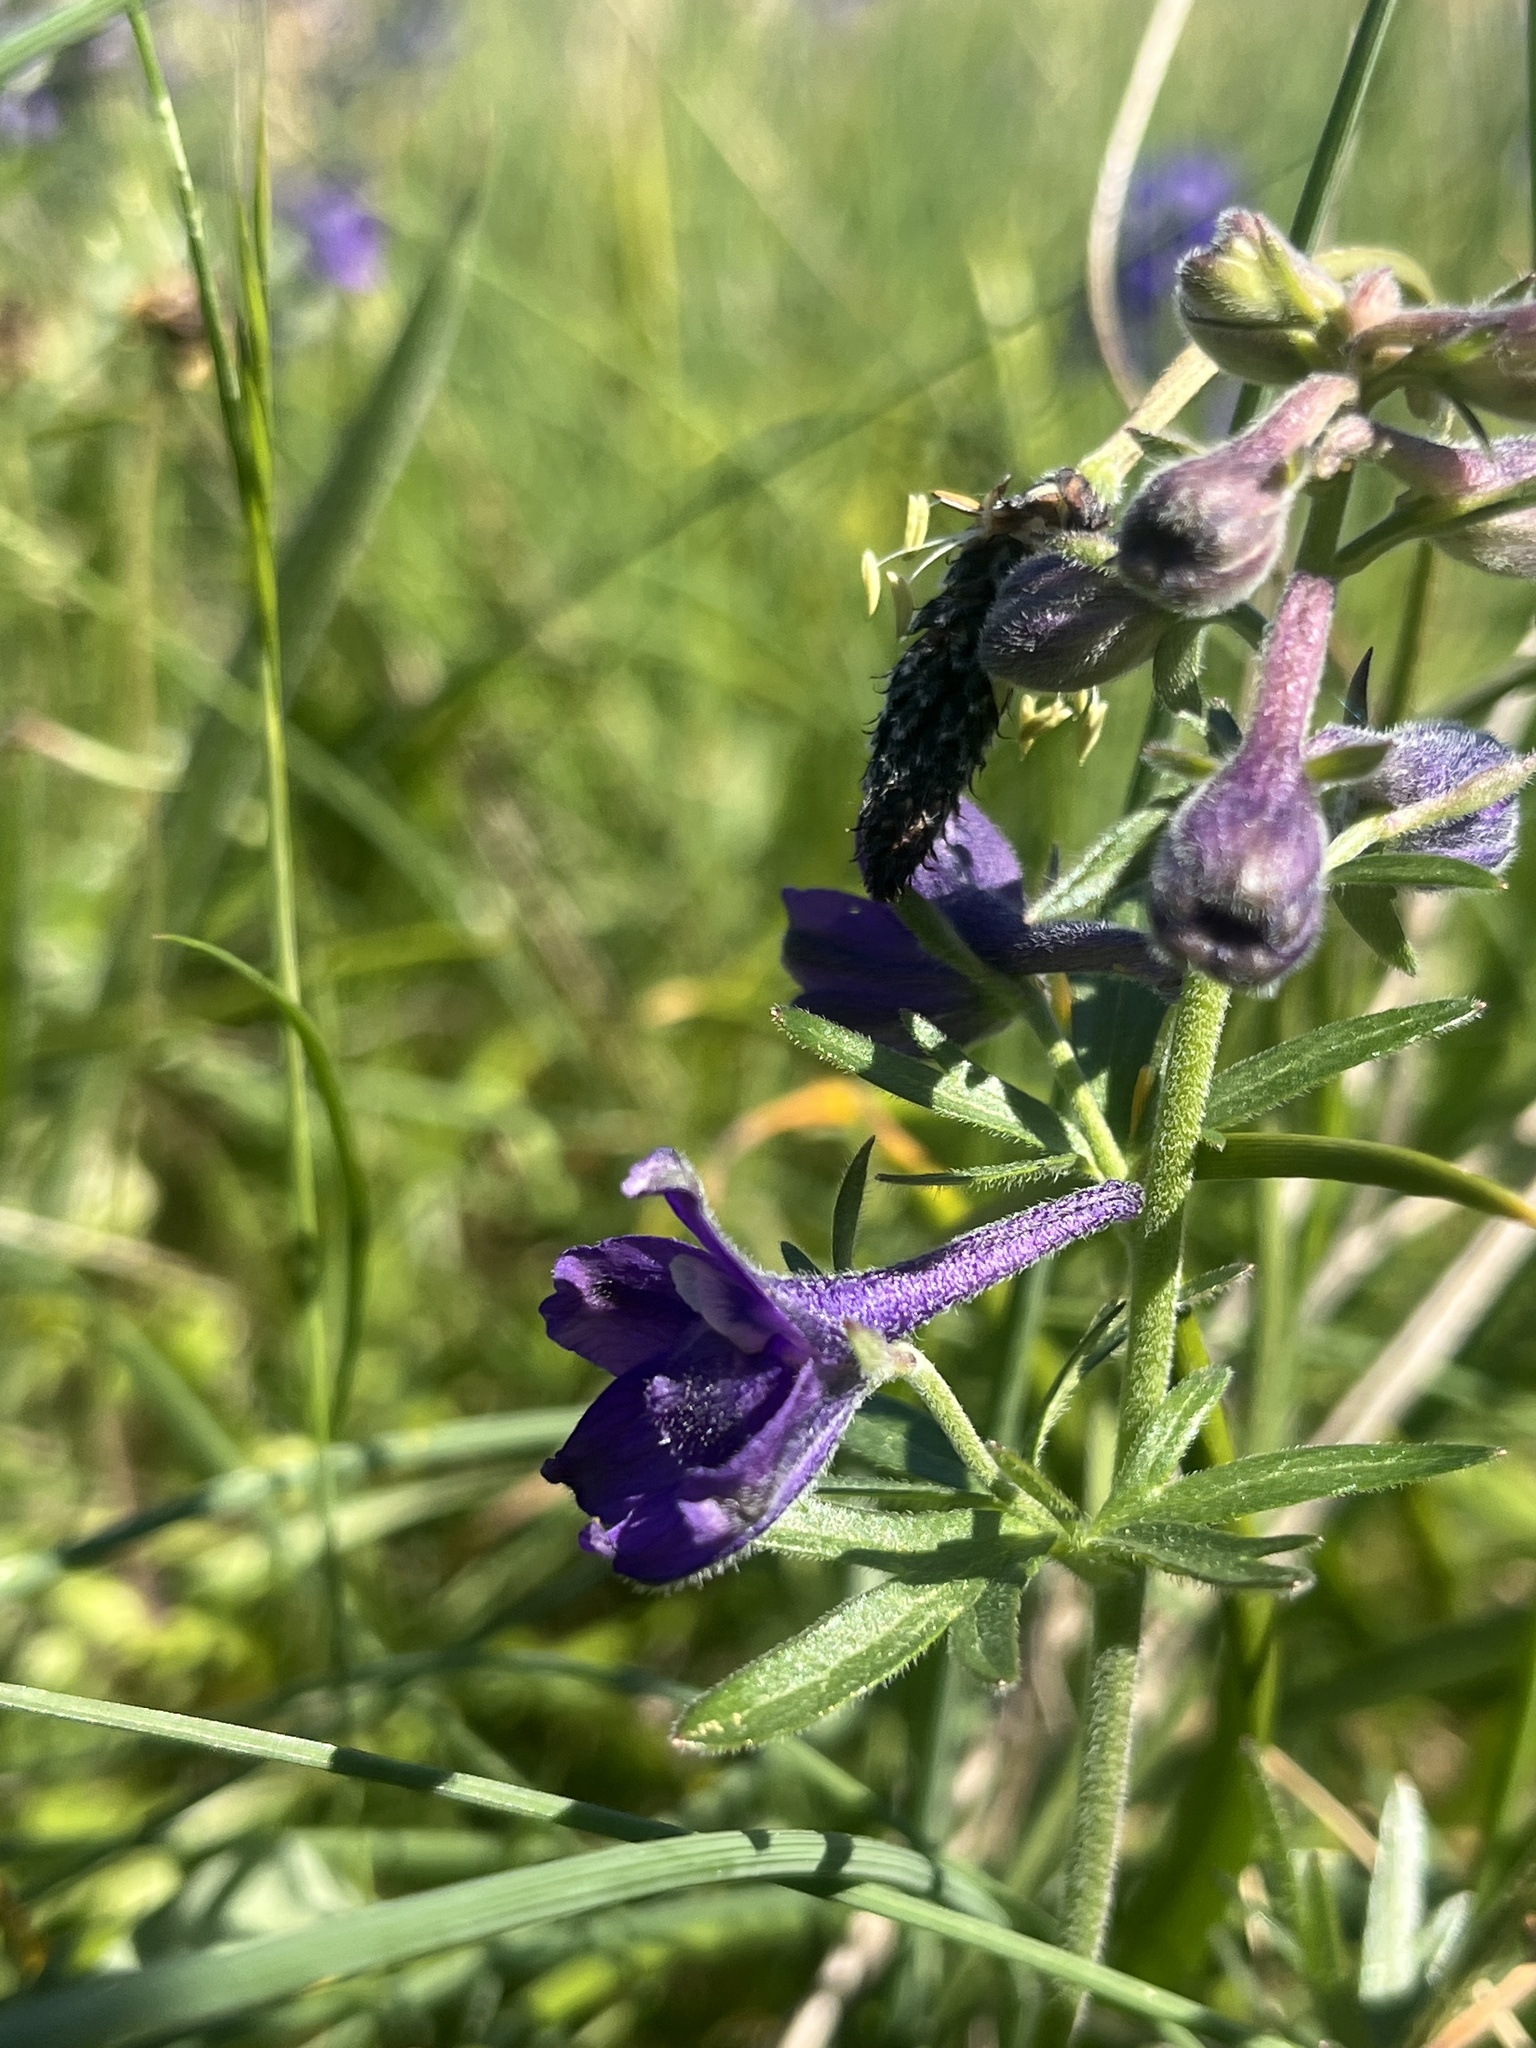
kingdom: Plantae
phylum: Tracheophyta
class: Magnoliopsida
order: Ranunculales
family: Ranunculaceae
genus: Delphinium
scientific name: Delphinium menziesii
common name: Menzies's larkspur
